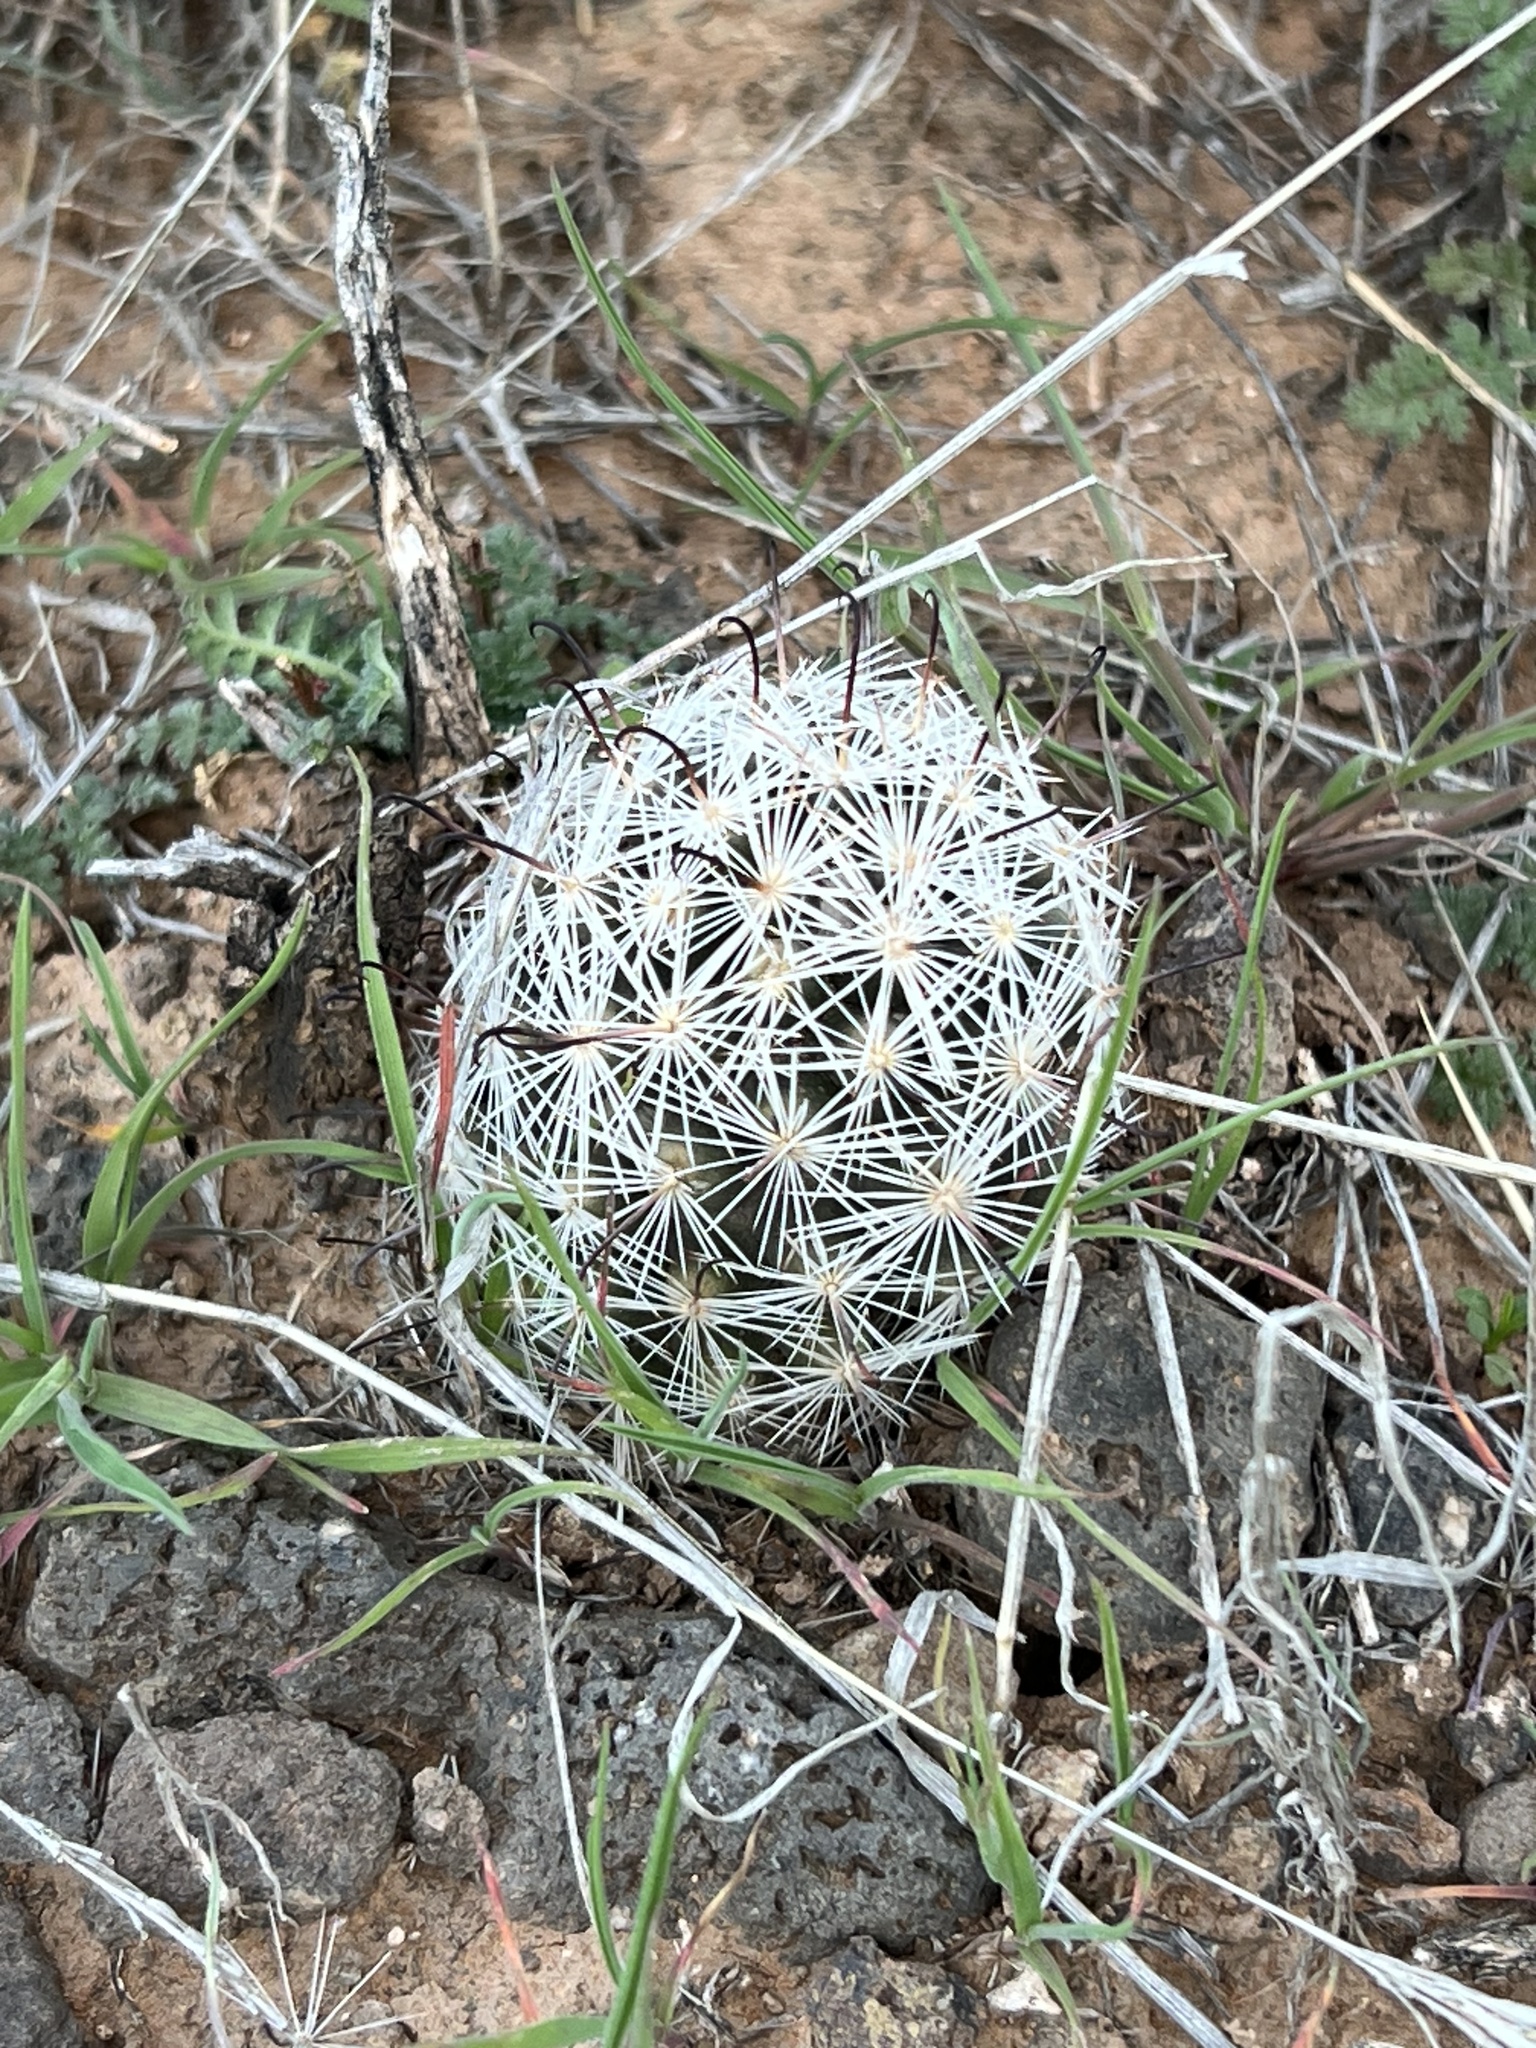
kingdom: Plantae
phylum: Tracheophyta
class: Magnoliopsida
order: Caryophyllales
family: Cactaceae
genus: Cochemiea
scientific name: Cochemiea tetrancistra
